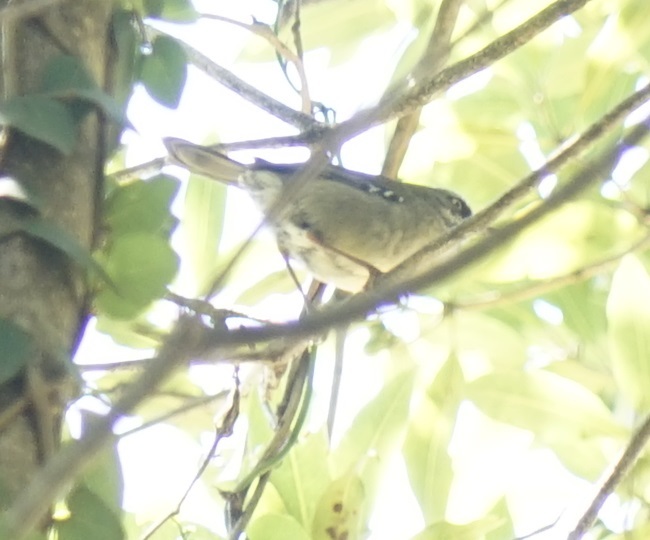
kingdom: Animalia
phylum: Chordata
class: Aves
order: Passeriformes
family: Acanthizidae
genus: Sericornis
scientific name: Sericornis frontalis
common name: White-browed scrubwren
